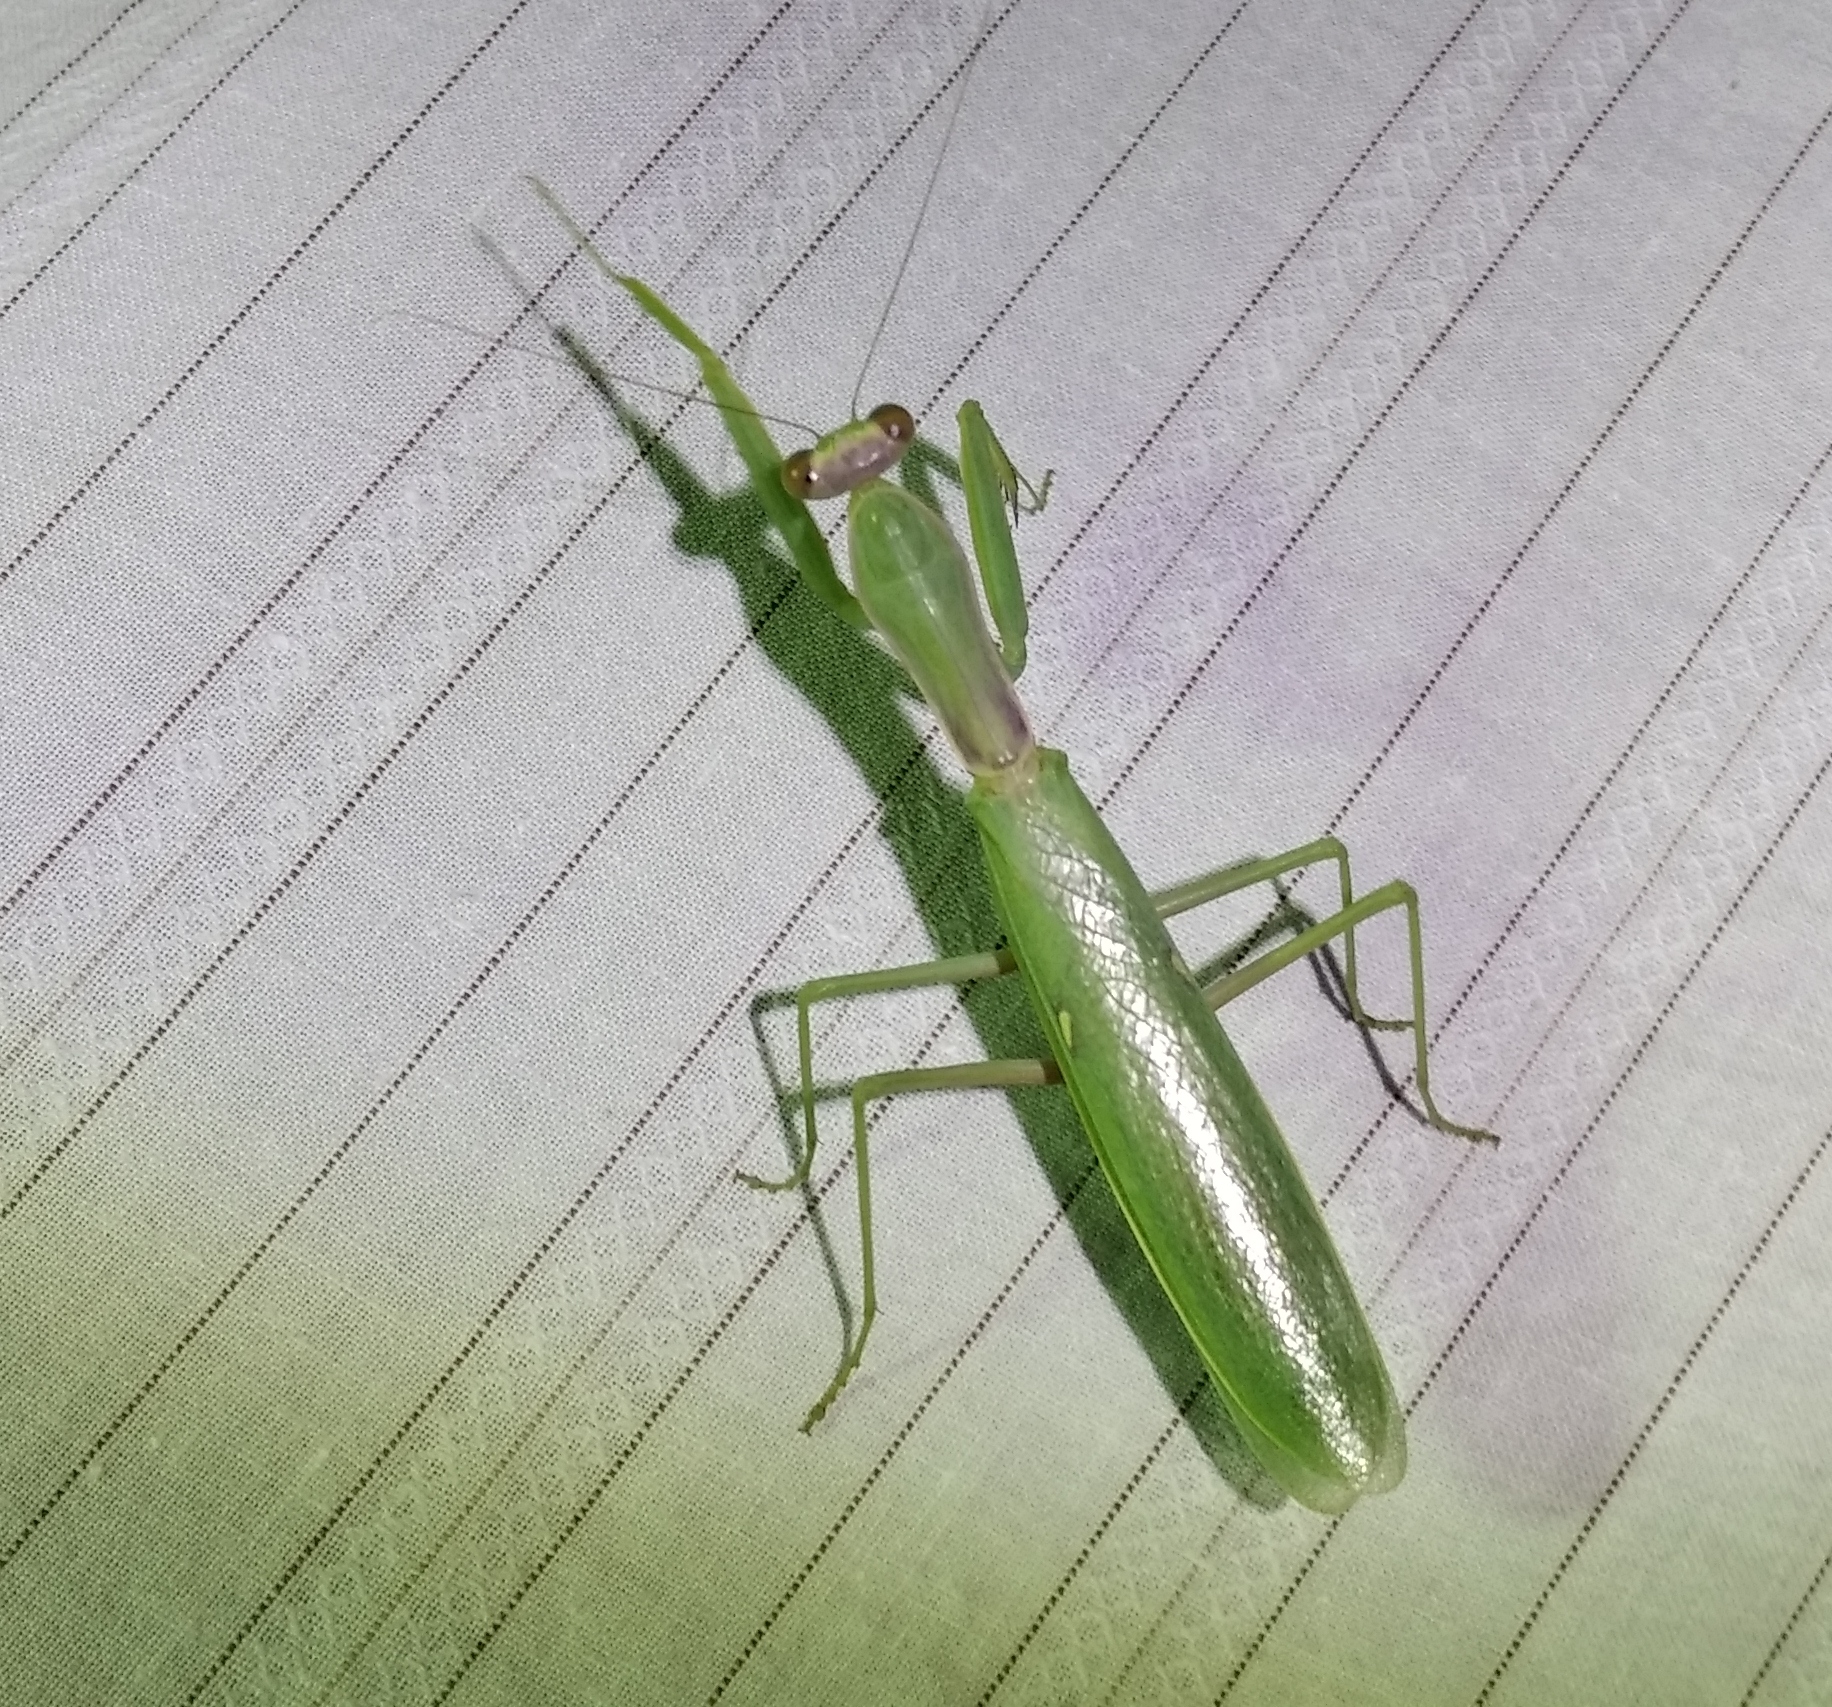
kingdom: Animalia
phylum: Arthropoda
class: Insecta
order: Mantodea
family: Mantidae
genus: Hierodula
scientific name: Hierodula transcaucasica
